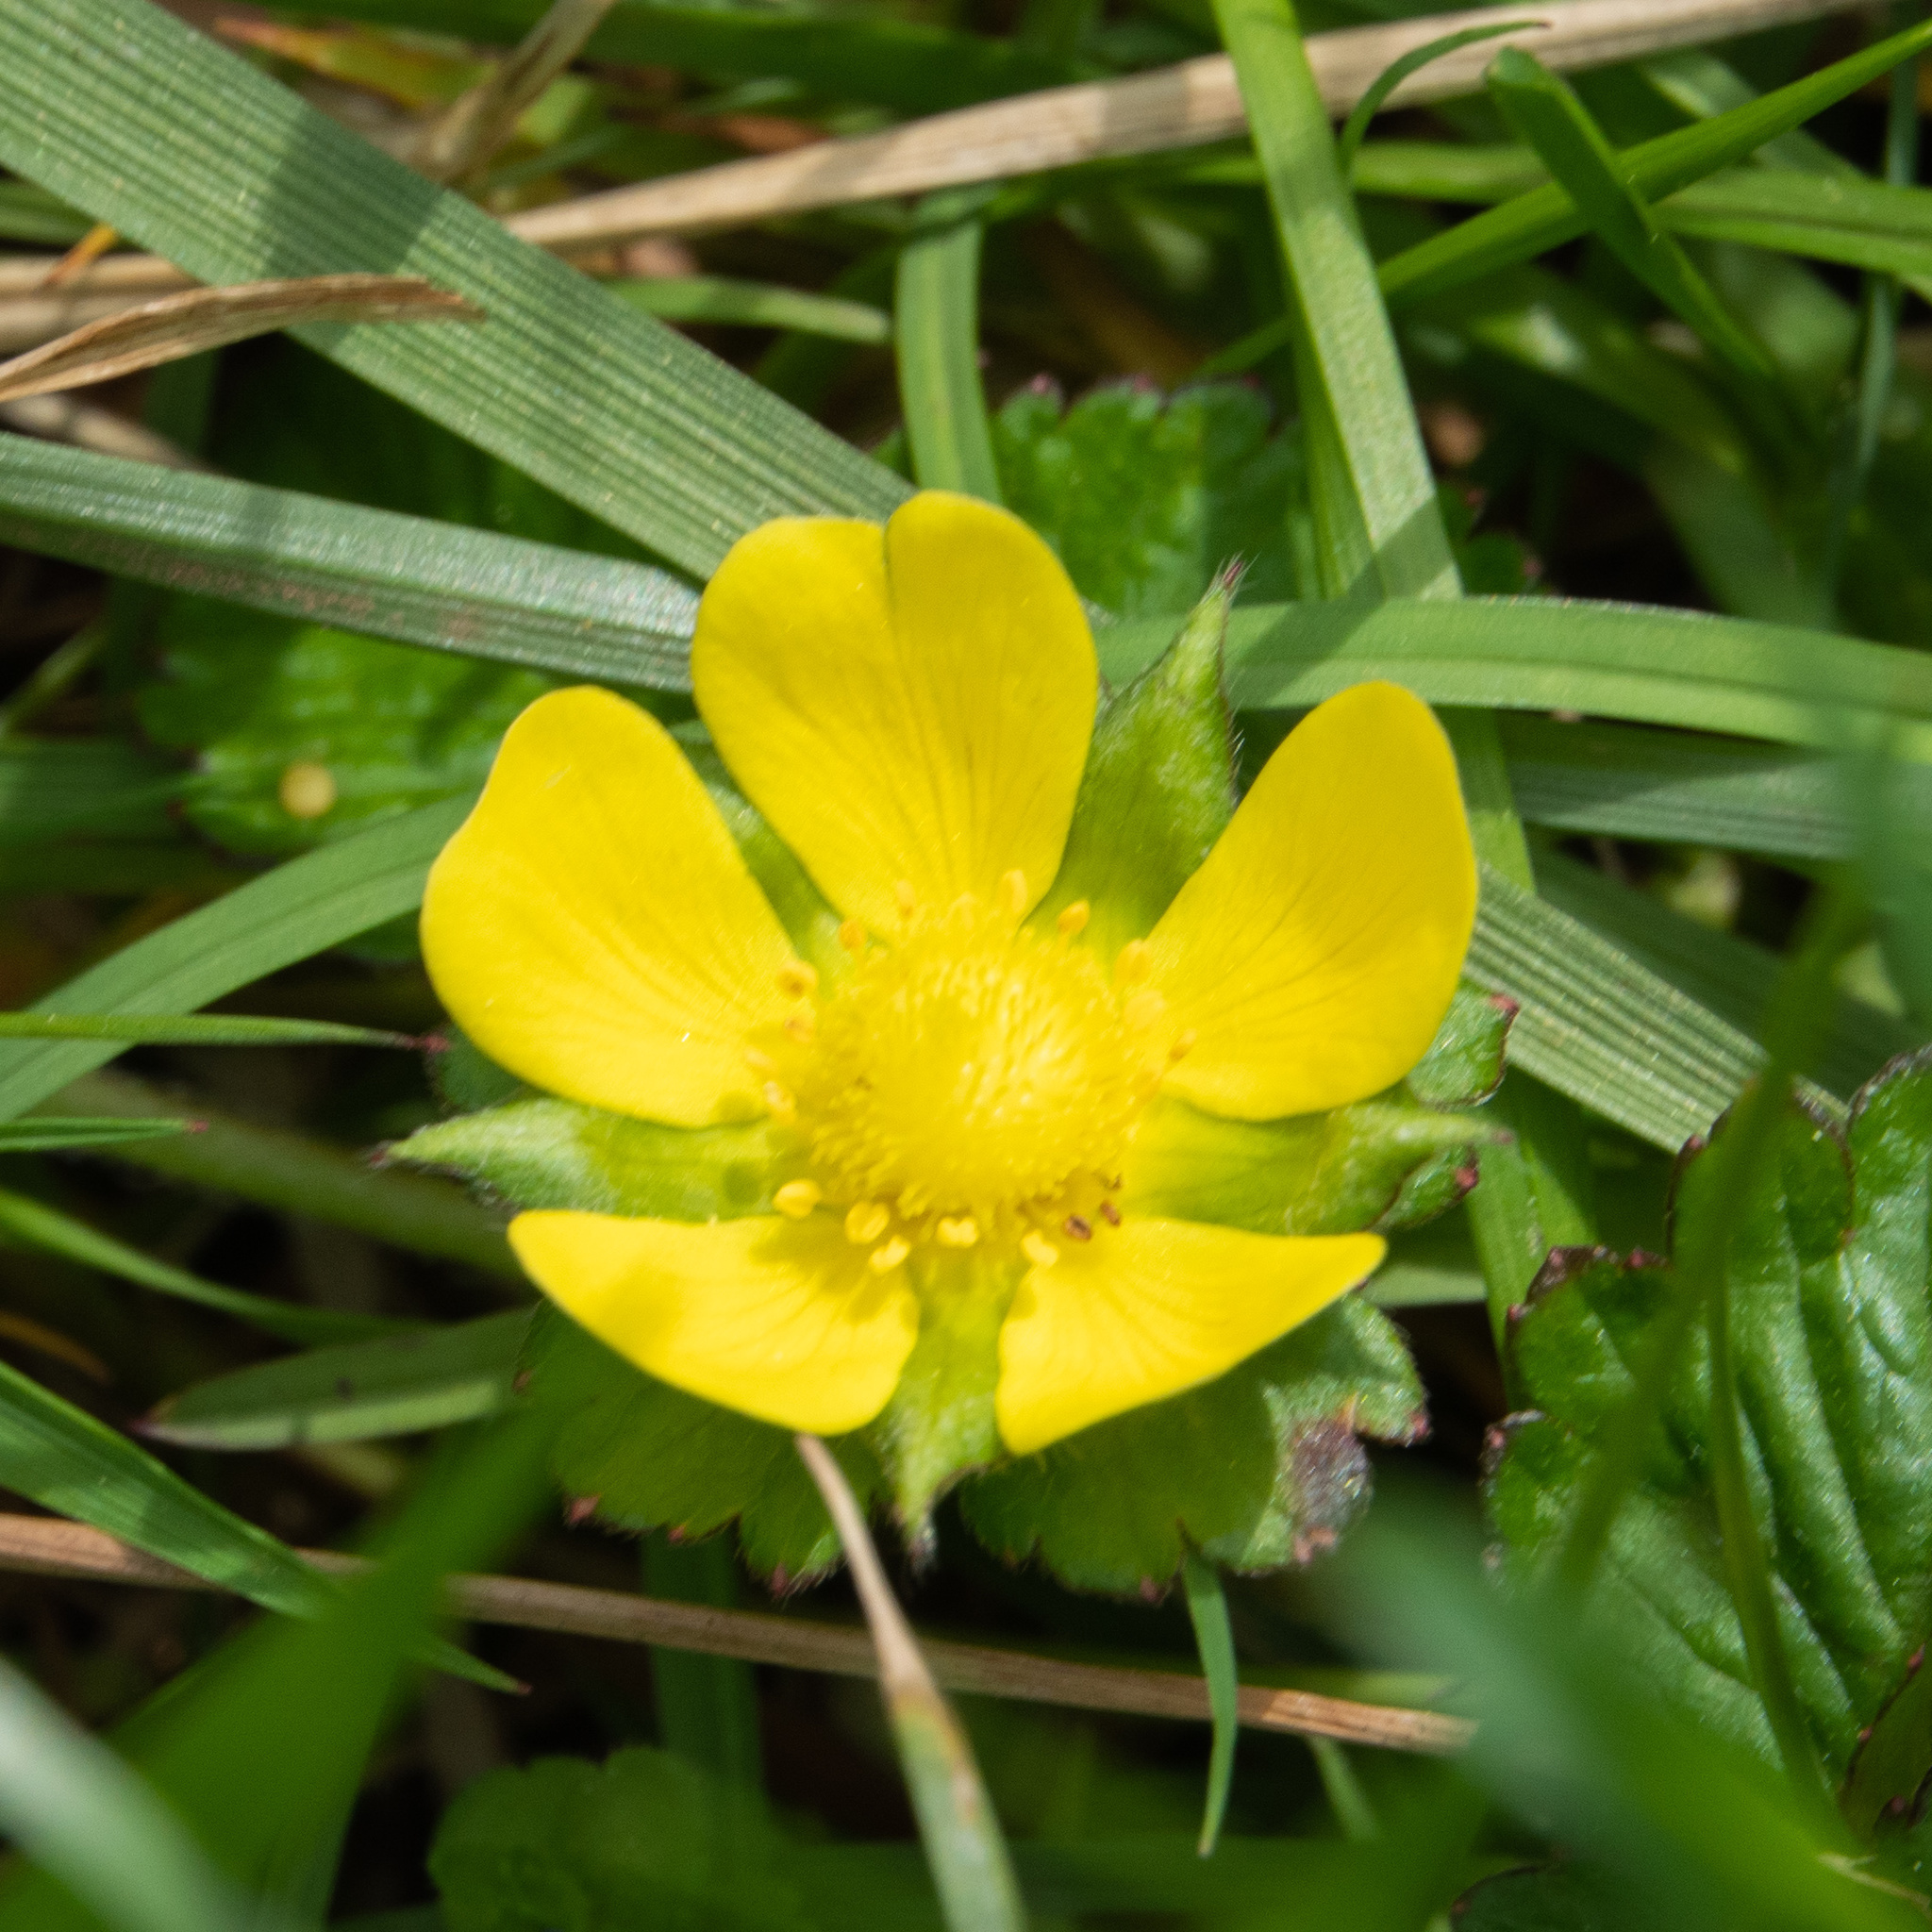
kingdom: Plantae
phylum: Tracheophyta
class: Magnoliopsida
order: Rosales
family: Rosaceae
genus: Potentilla
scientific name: Potentilla indica
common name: Yellow-flowered strawberry
